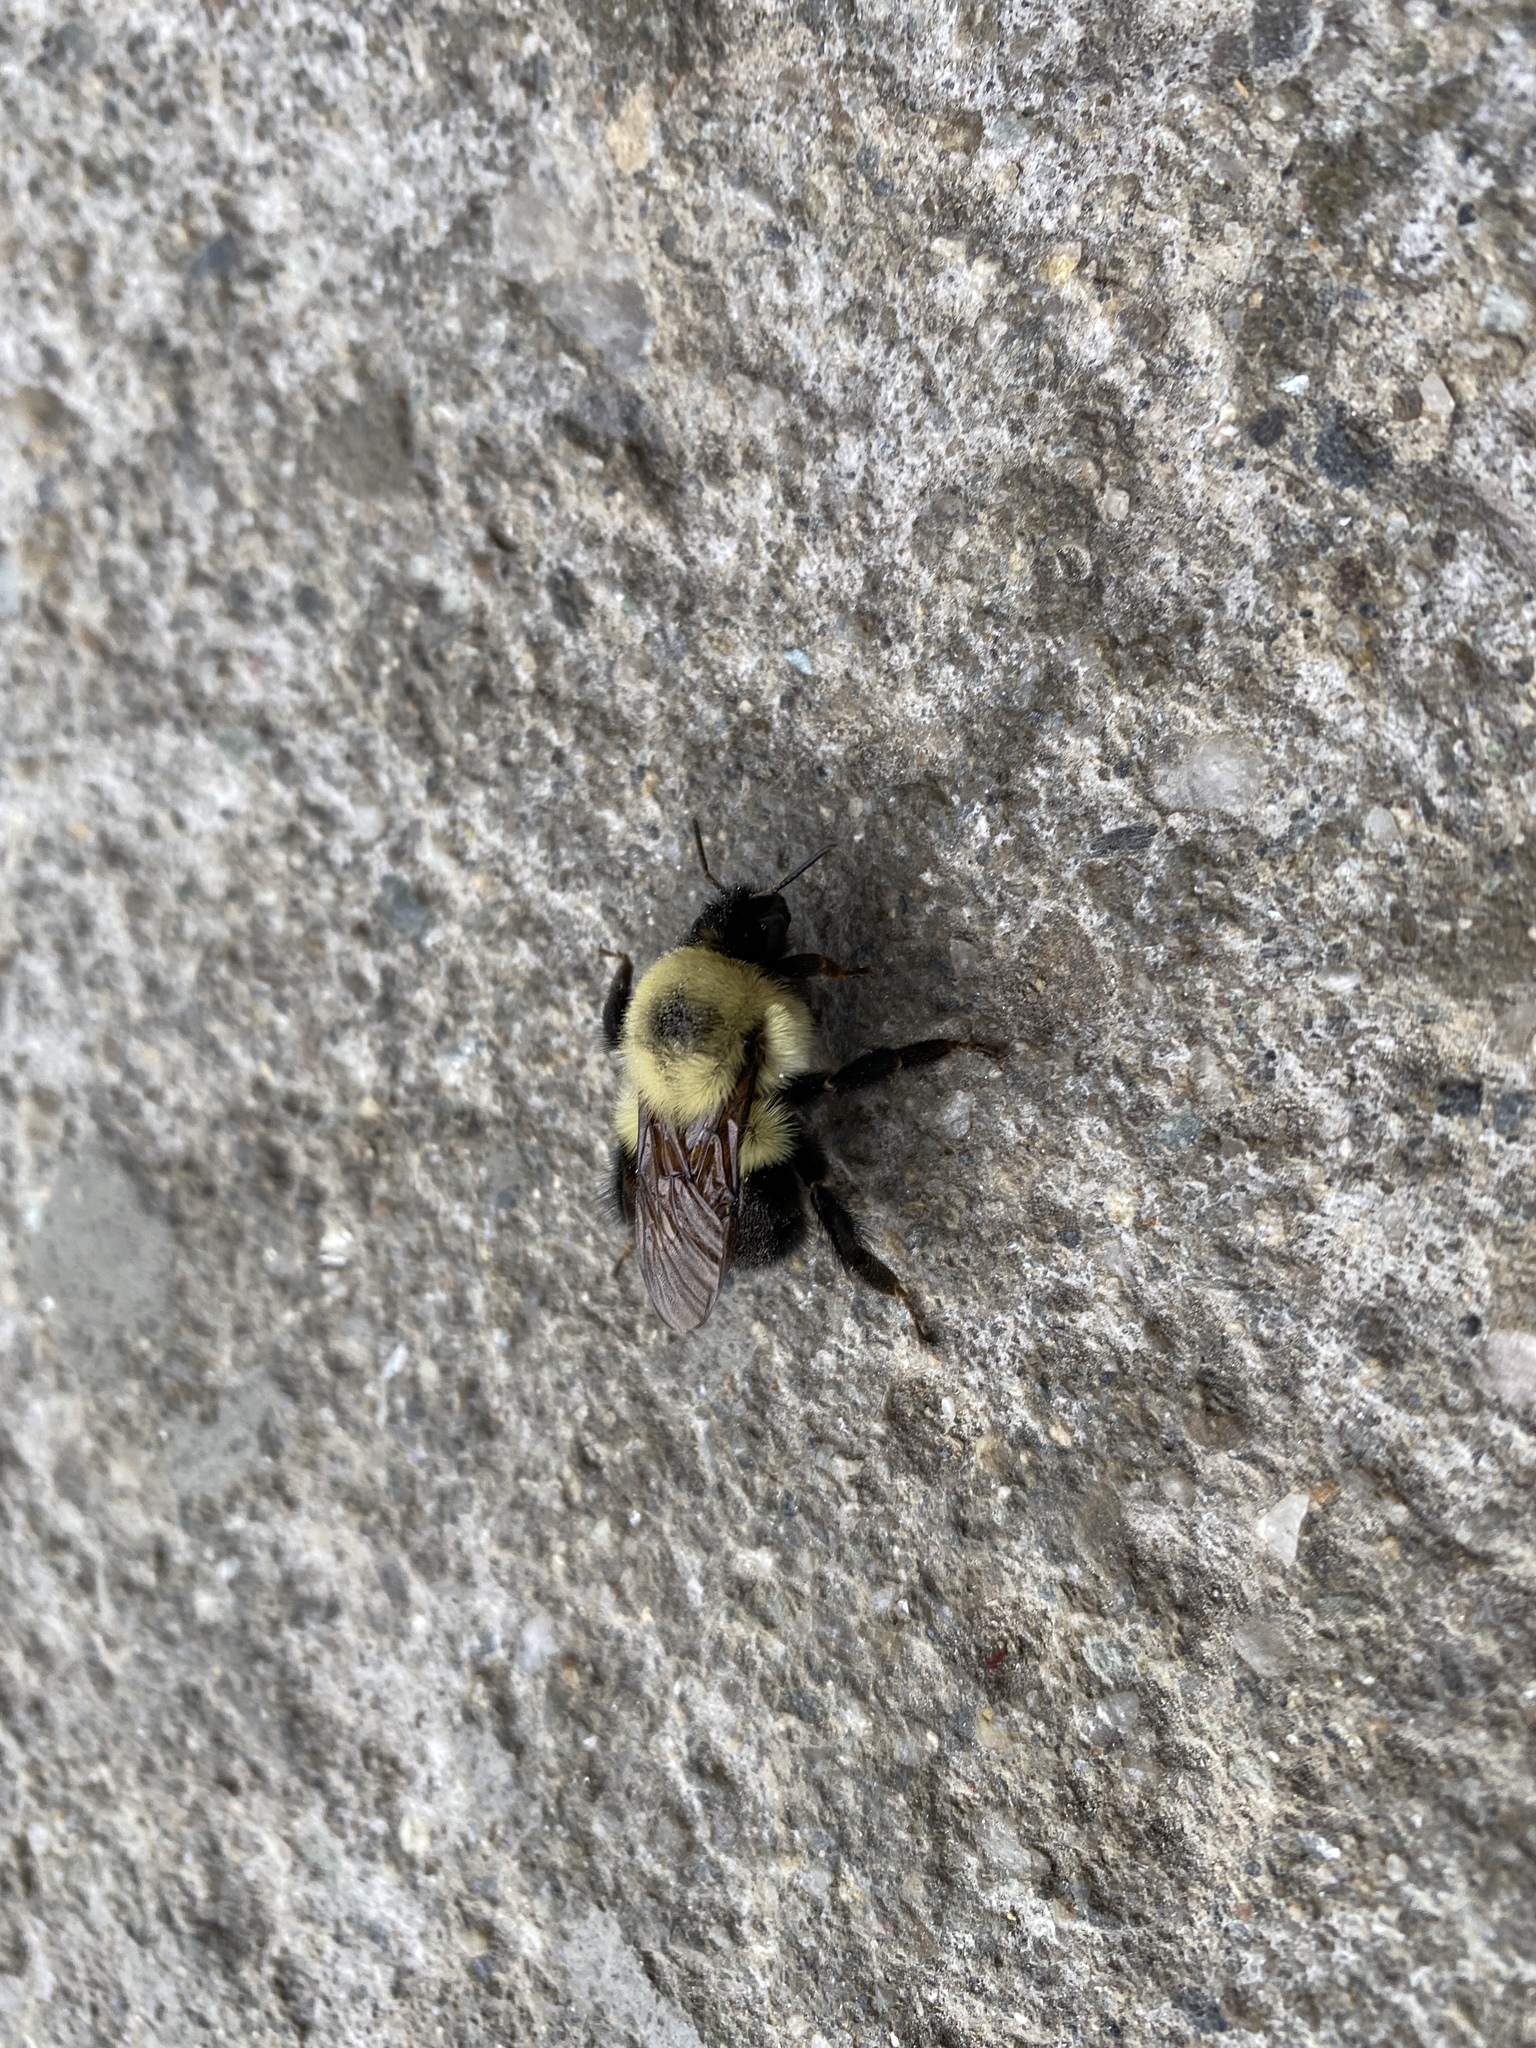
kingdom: Animalia
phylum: Arthropoda
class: Insecta
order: Hymenoptera
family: Apidae
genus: Bombus
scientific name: Bombus bimaculatus
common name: Two-spotted bumble bee
